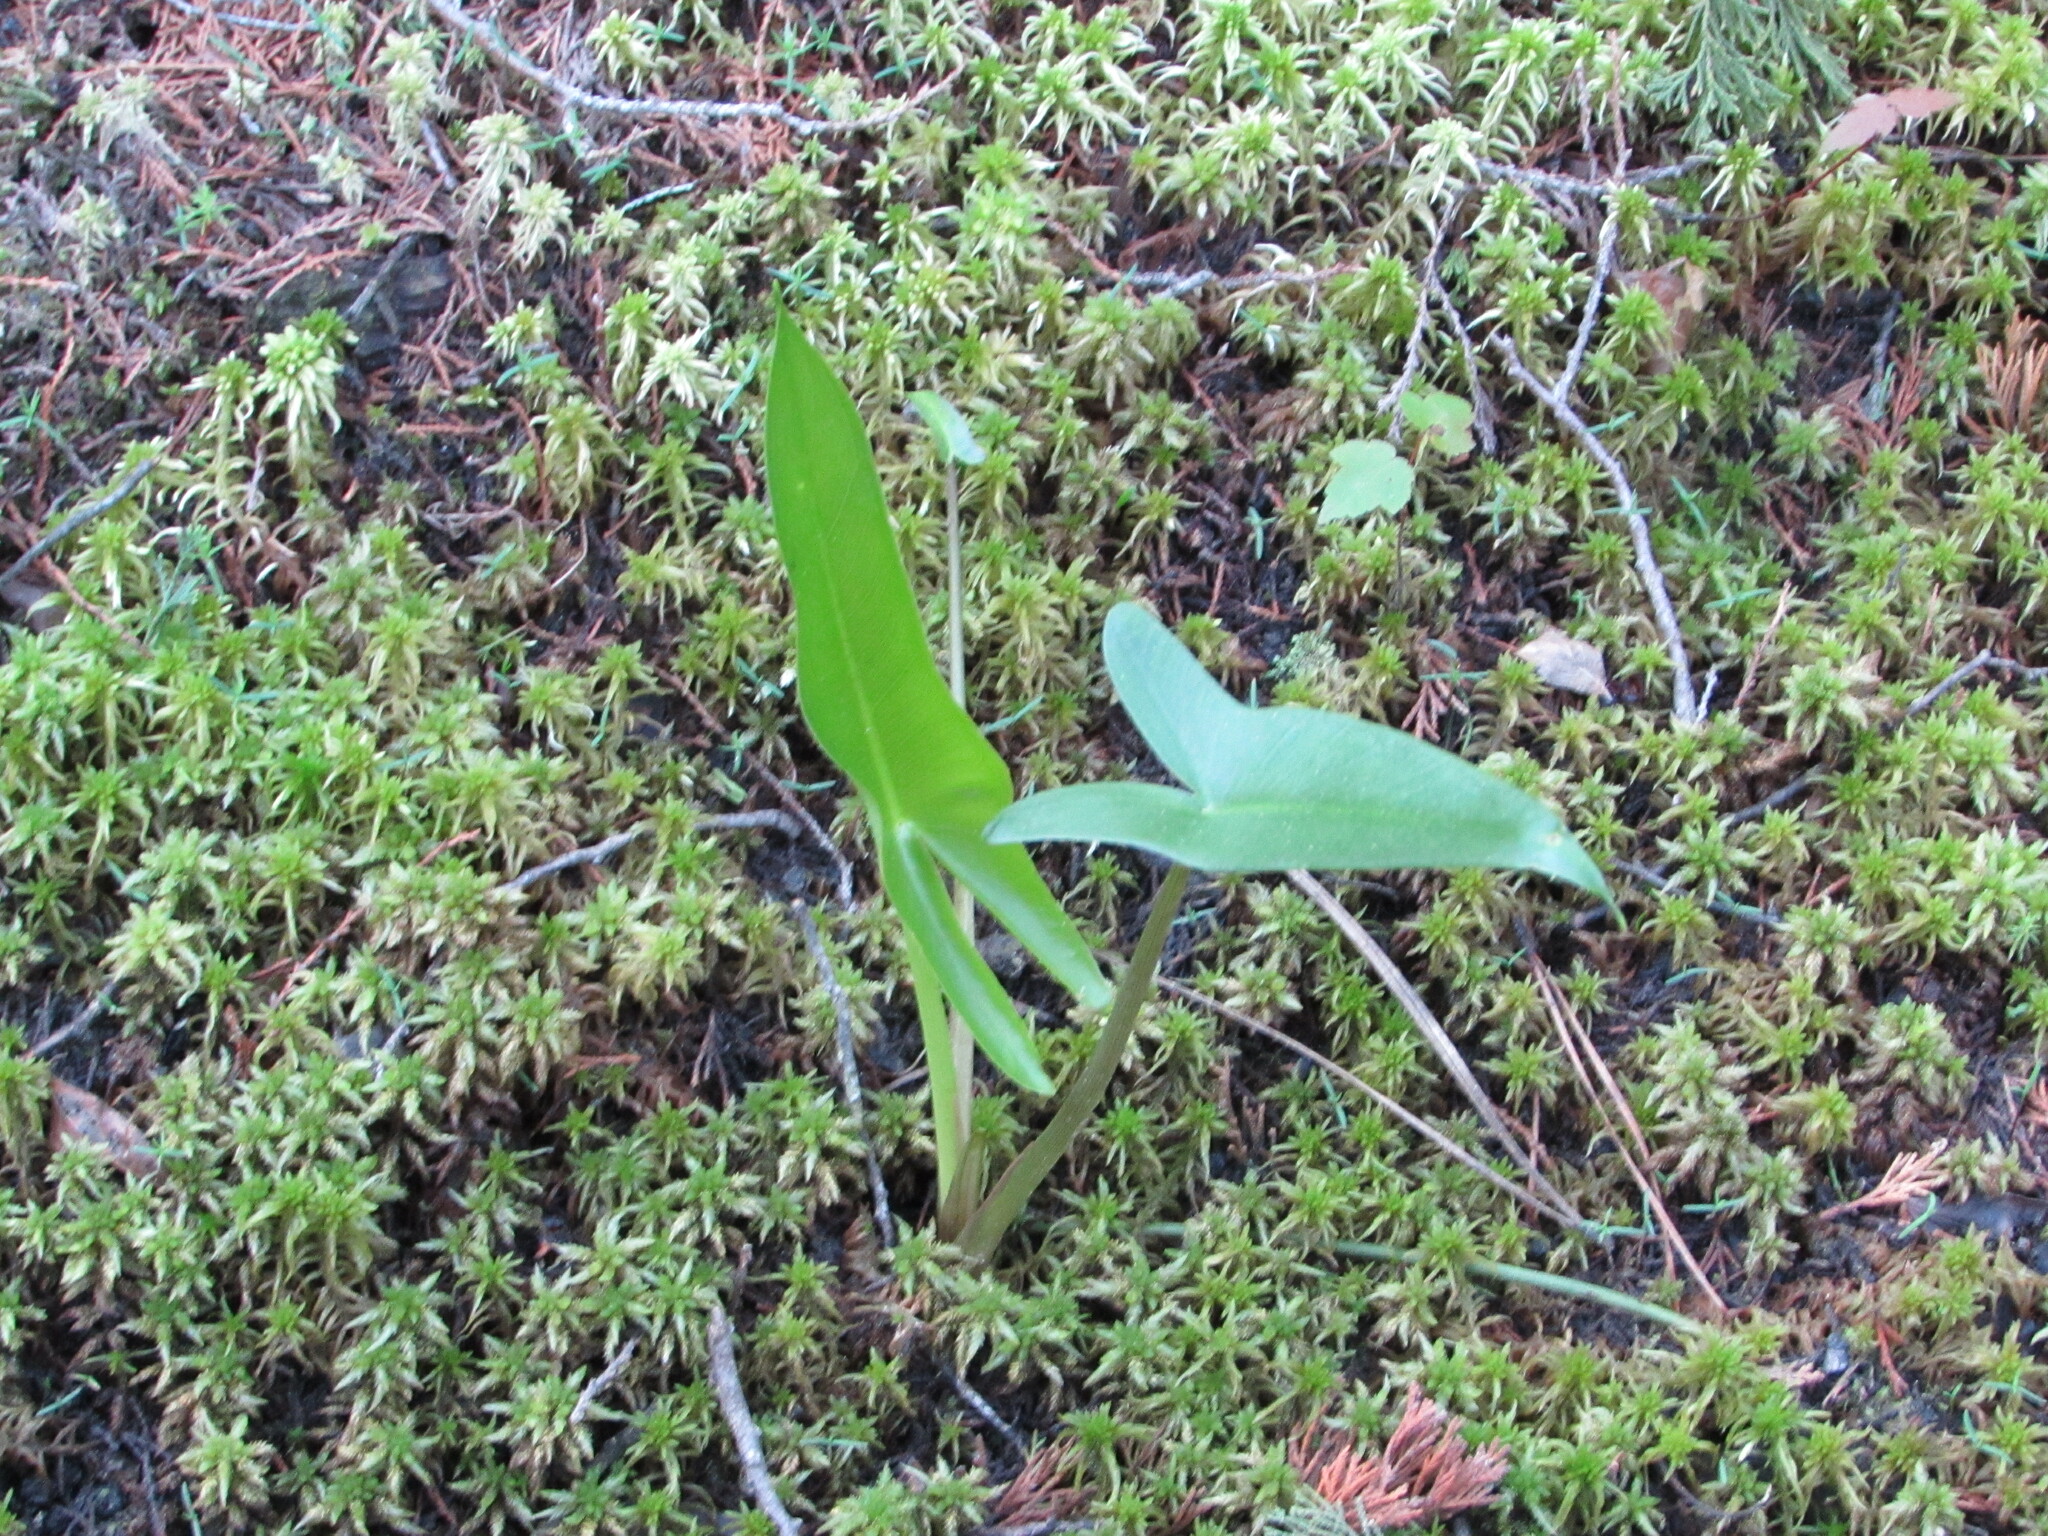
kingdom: Plantae
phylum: Tracheophyta
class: Liliopsida
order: Alismatales
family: Araceae
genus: Peltandra
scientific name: Peltandra virginica
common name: Arrow arum
